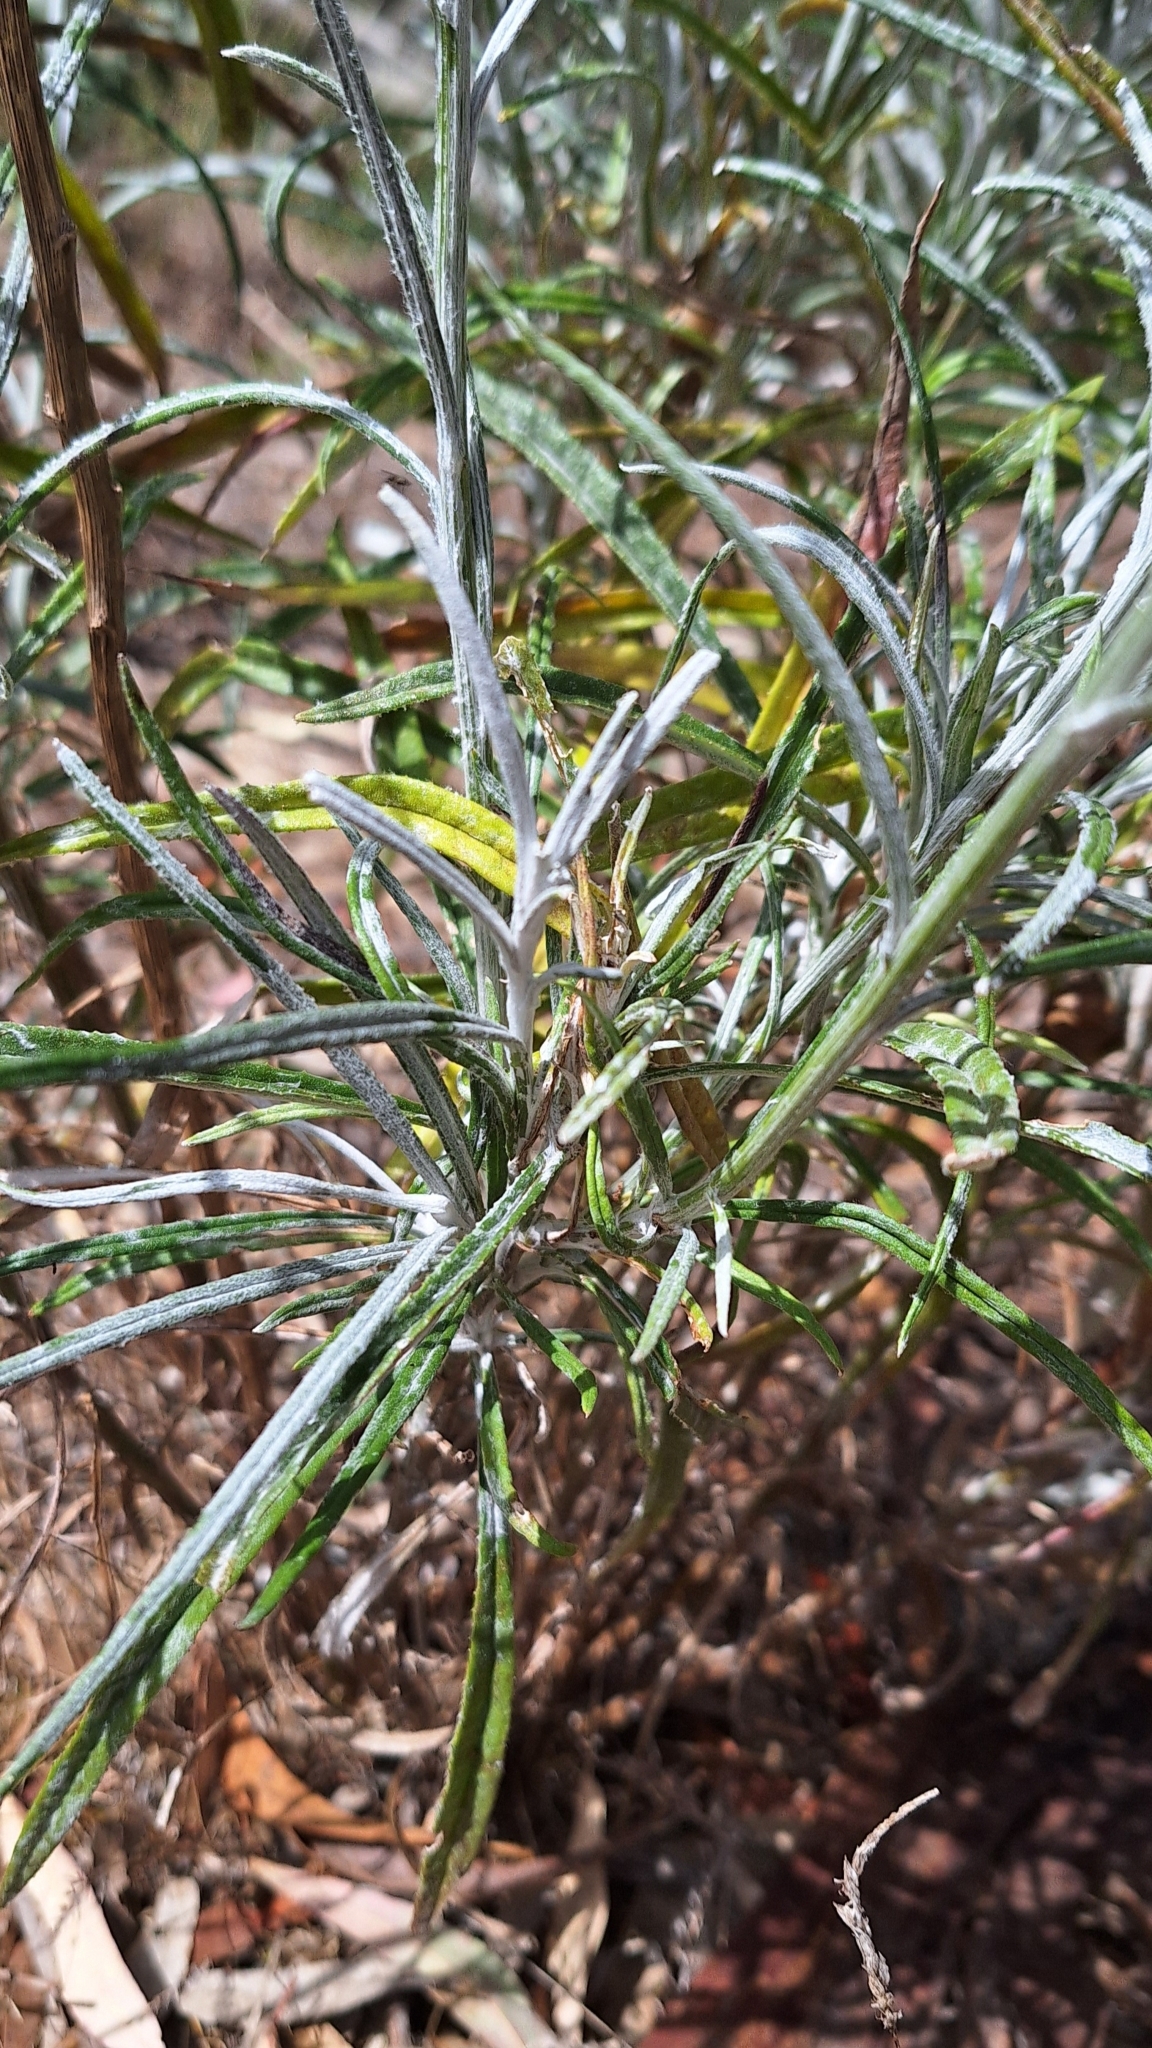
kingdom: Plantae
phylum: Tracheophyta
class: Magnoliopsida
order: Asterales
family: Asteraceae
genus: Senecio
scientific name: Senecio quadridentatus
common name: Cotton fireweed
